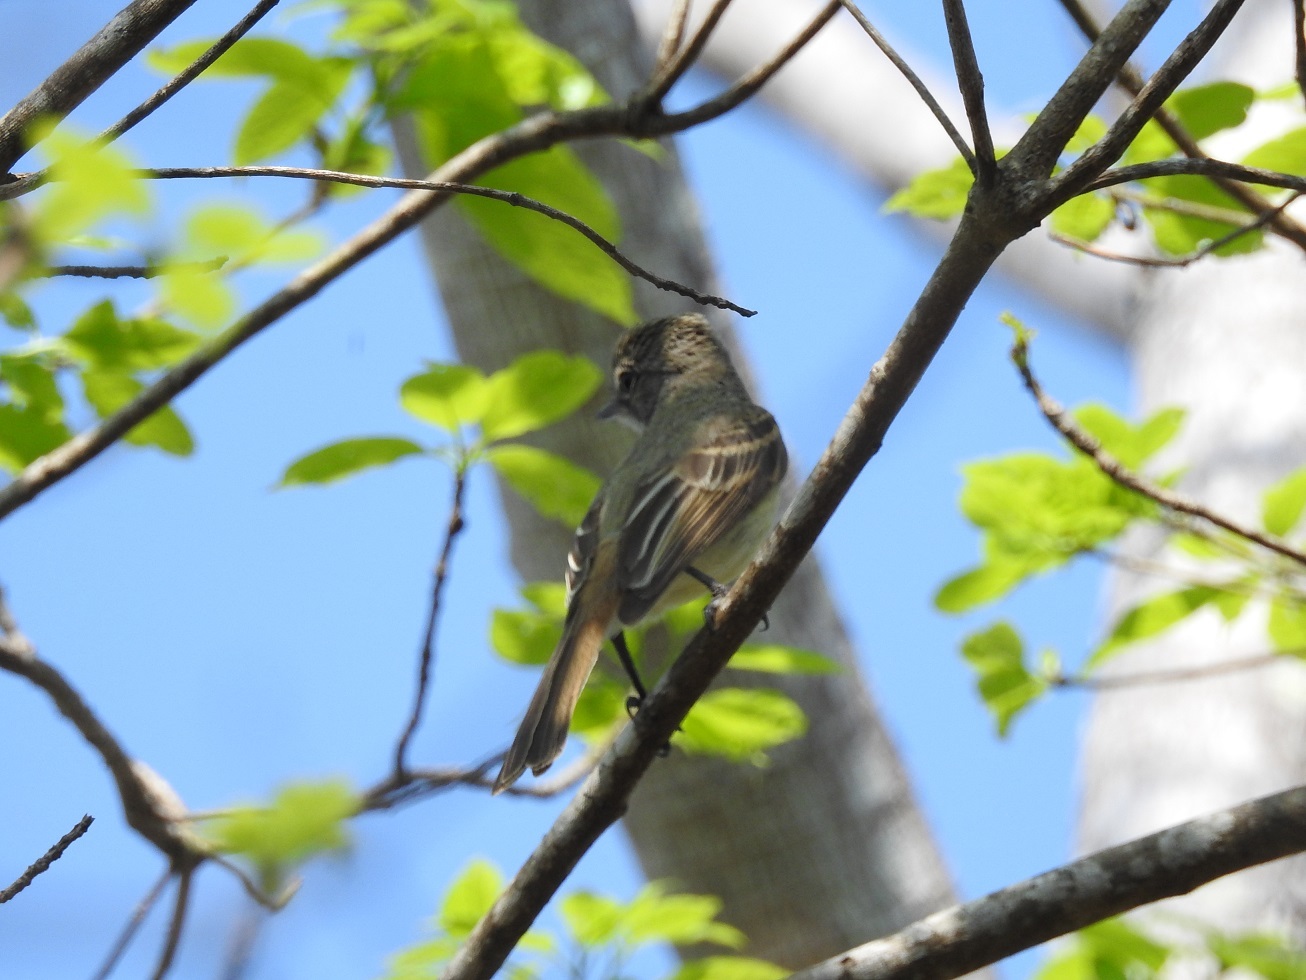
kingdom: Animalia
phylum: Chordata
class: Aves
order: Passeriformes
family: Tyrannidae
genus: Deltarhynchus
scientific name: Deltarhynchus flammulatus
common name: Flammulated flycatcher
